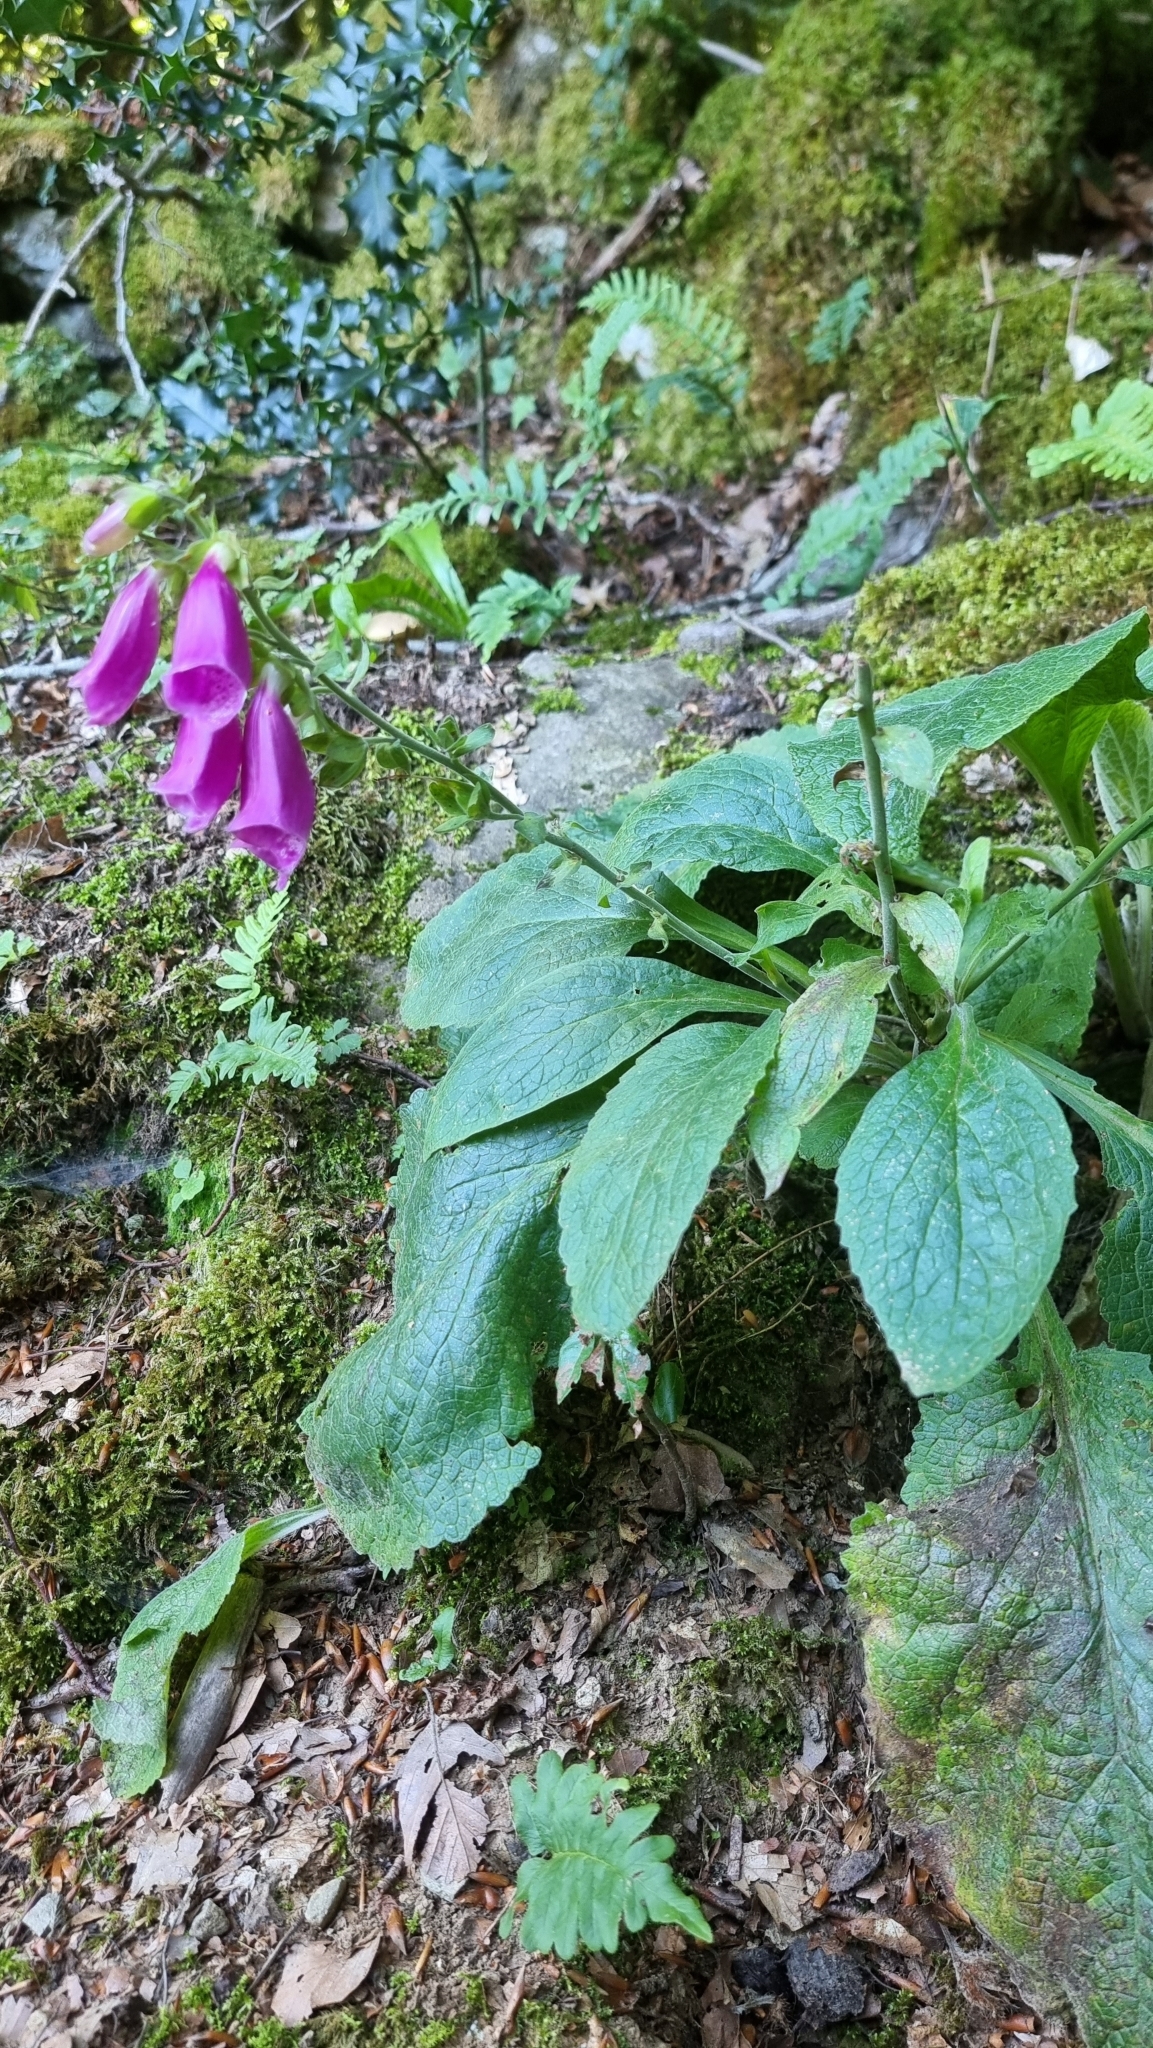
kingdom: Plantae
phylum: Tracheophyta
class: Magnoliopsida
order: Lamiales
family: Plantaginaceae
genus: Digitalis
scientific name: Digitalis purpurea
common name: Foxglove
